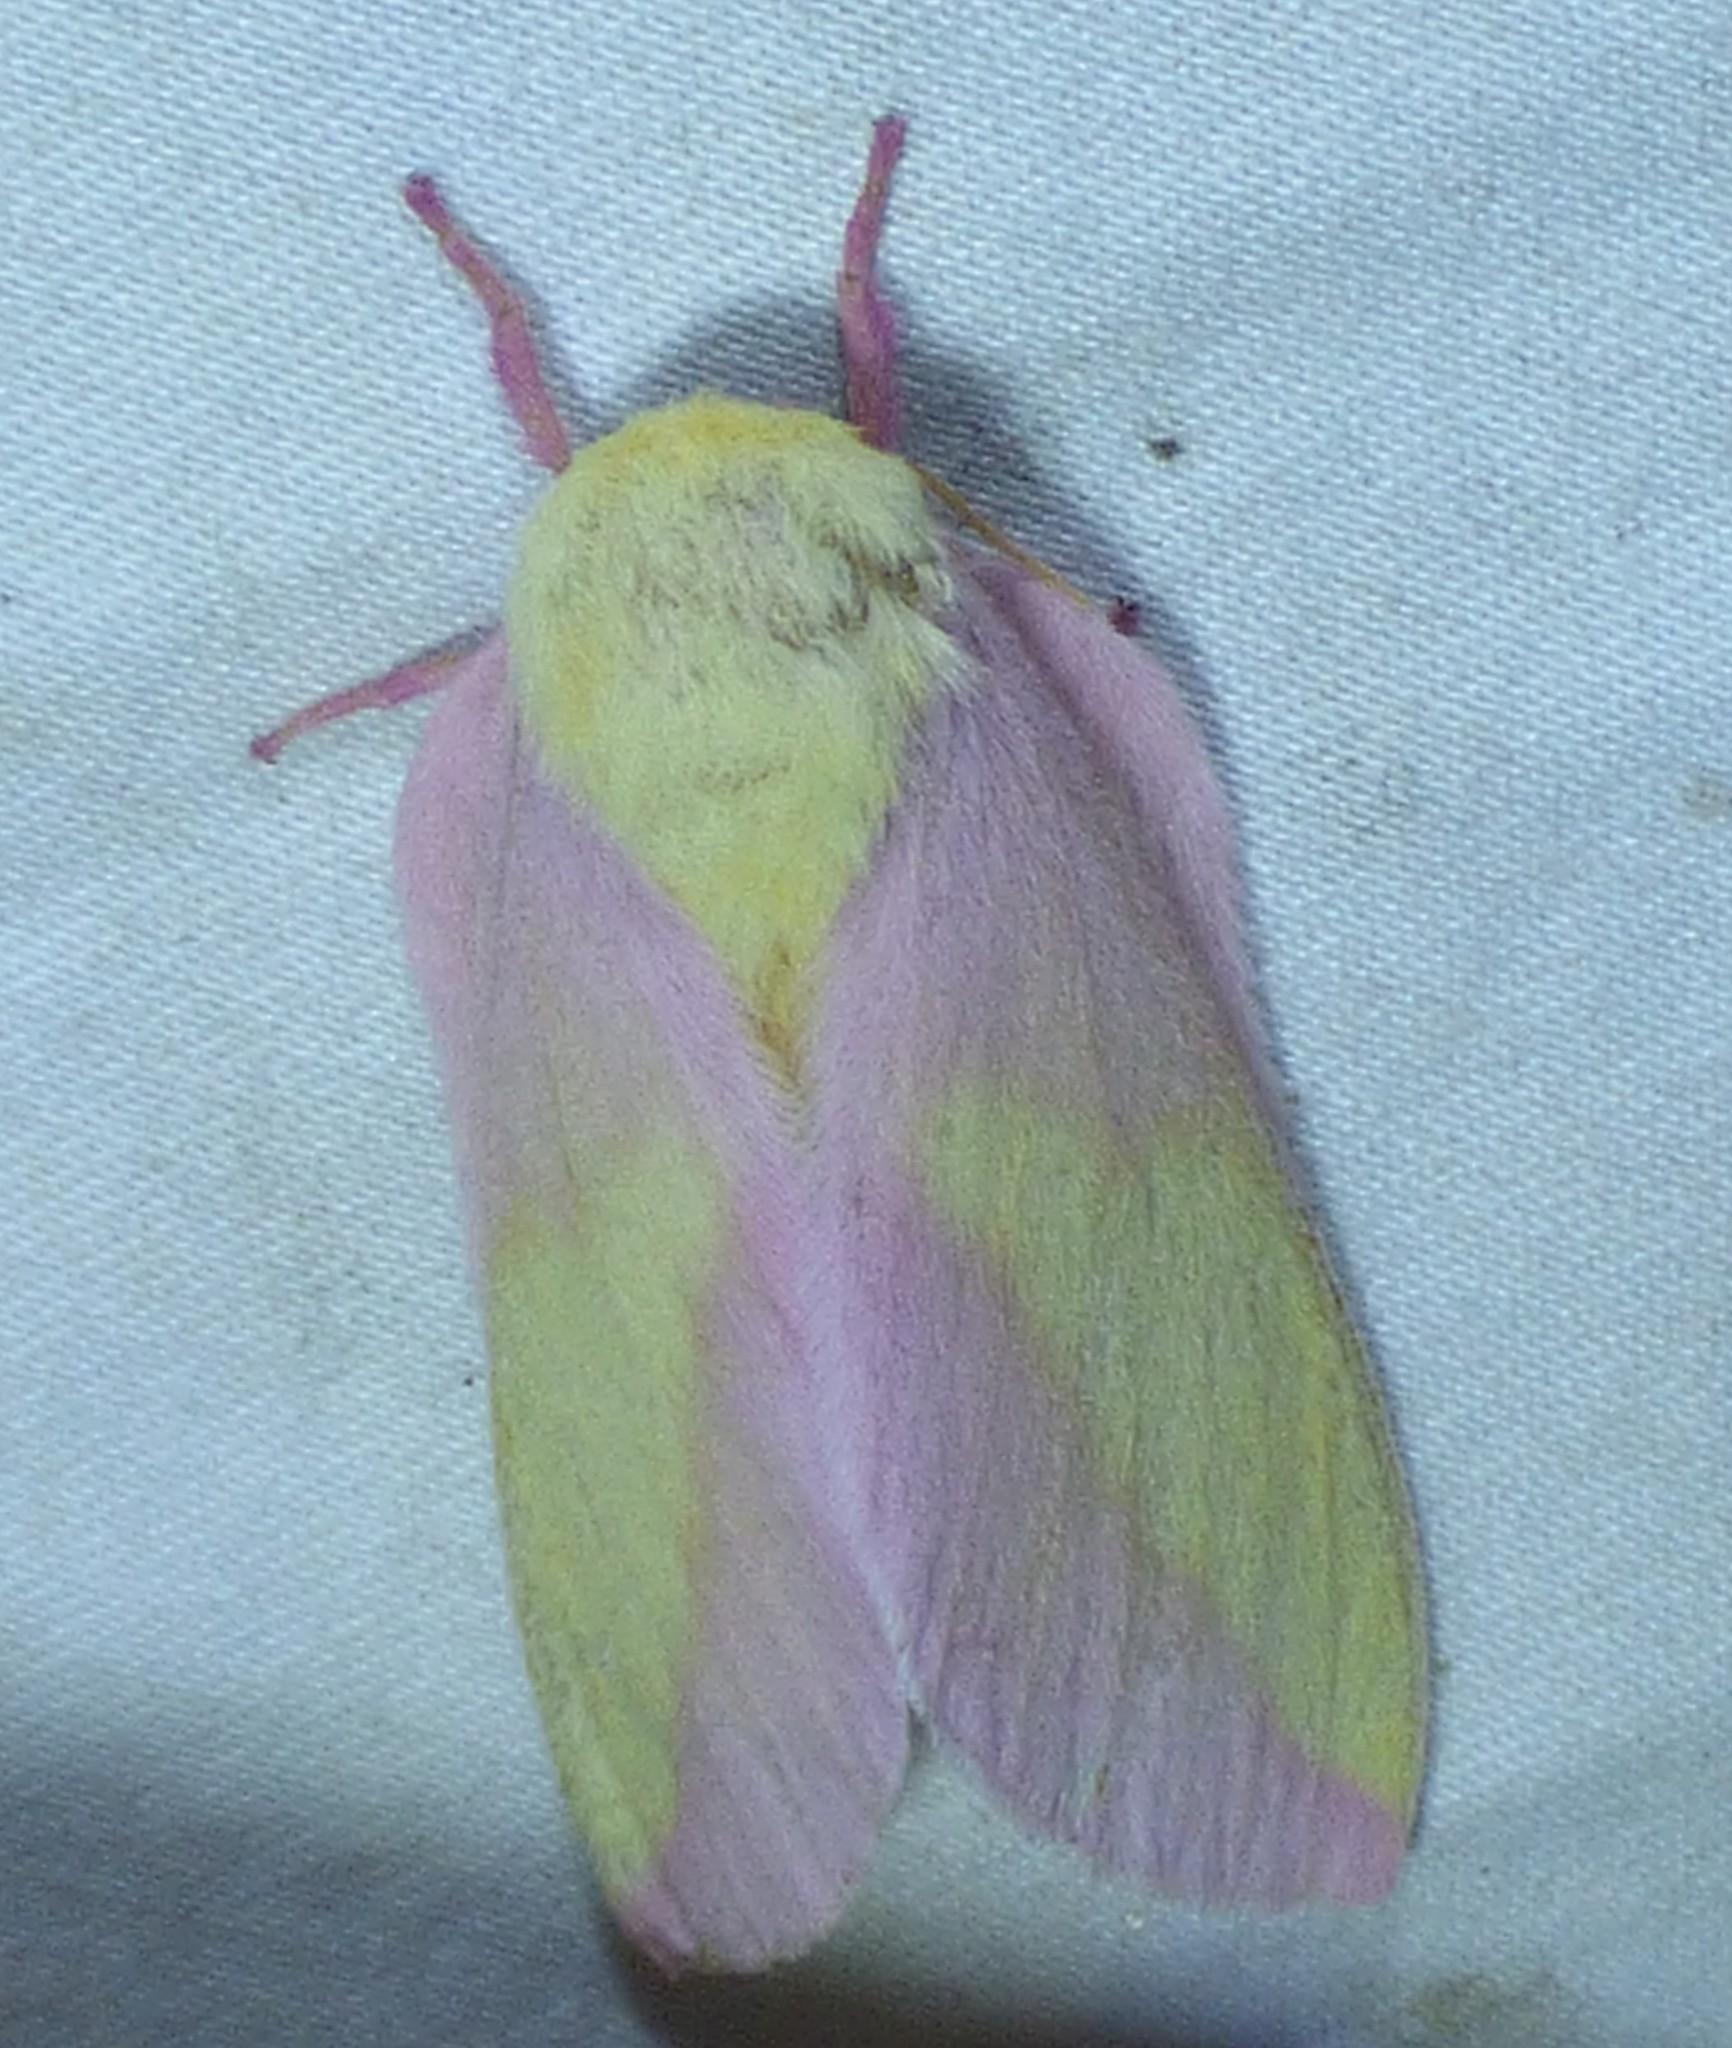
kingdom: Animalia
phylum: Arthropoda
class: Insecta
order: Lepidoptera
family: Saturniidae
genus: Dryocampa
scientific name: Dryocampa rubicunda
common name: Rosy maple moth
